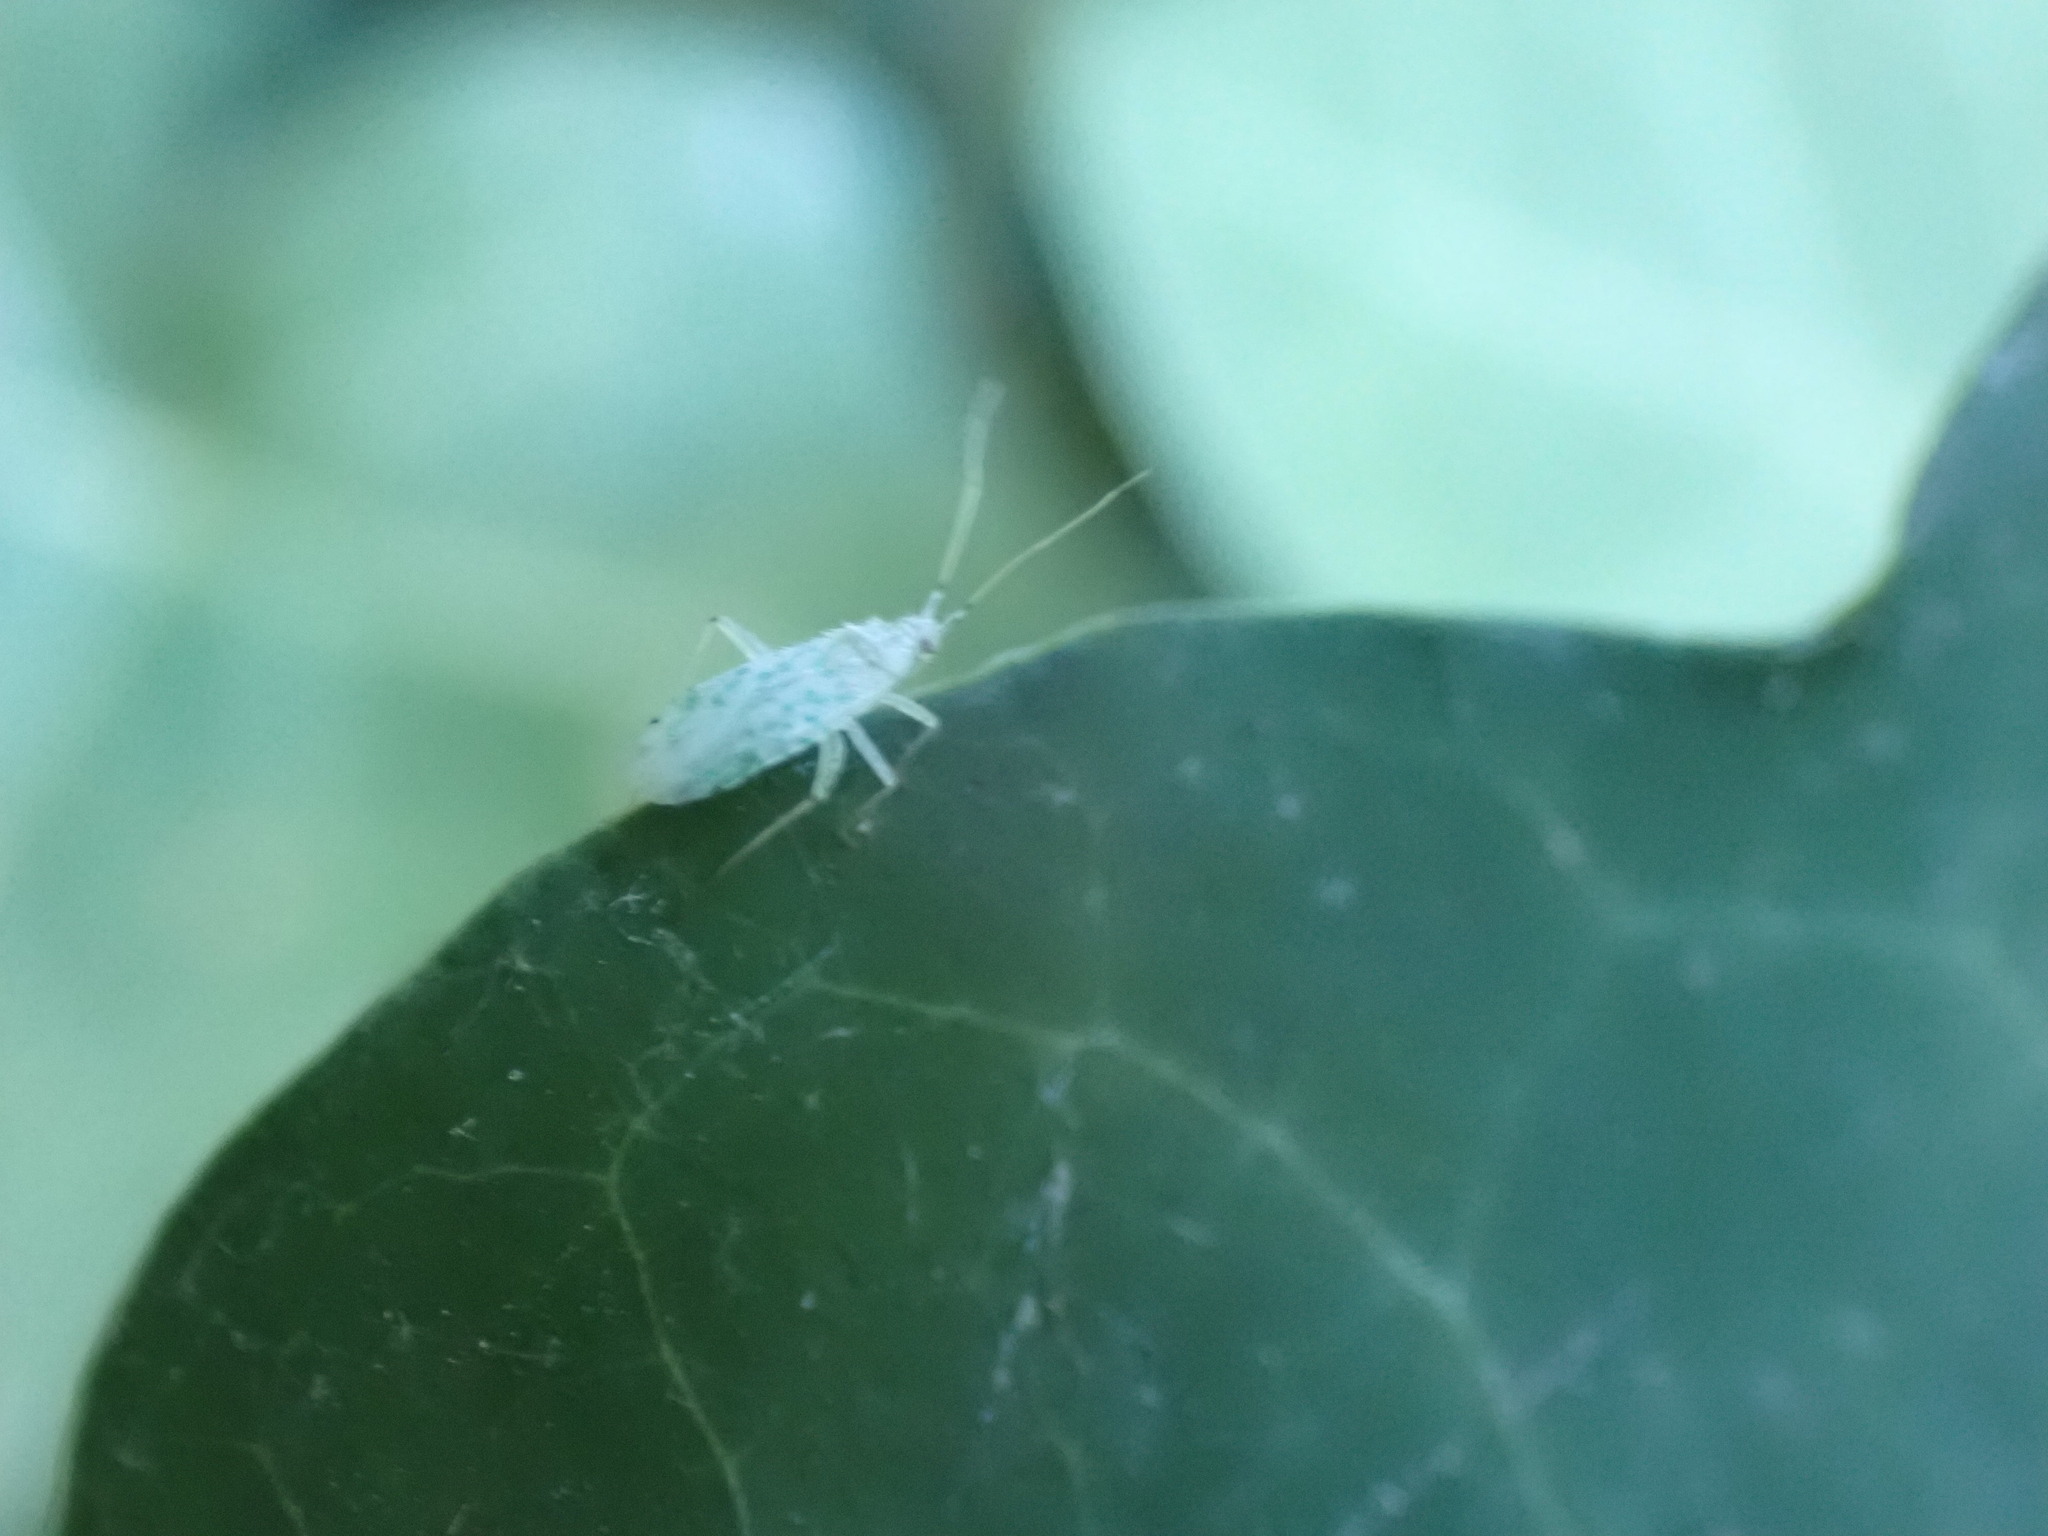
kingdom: Animalia
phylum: Arthropoda
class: Insecta
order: Hemiptera
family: Miridae
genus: Reuteria
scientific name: Reuteria marqueti
